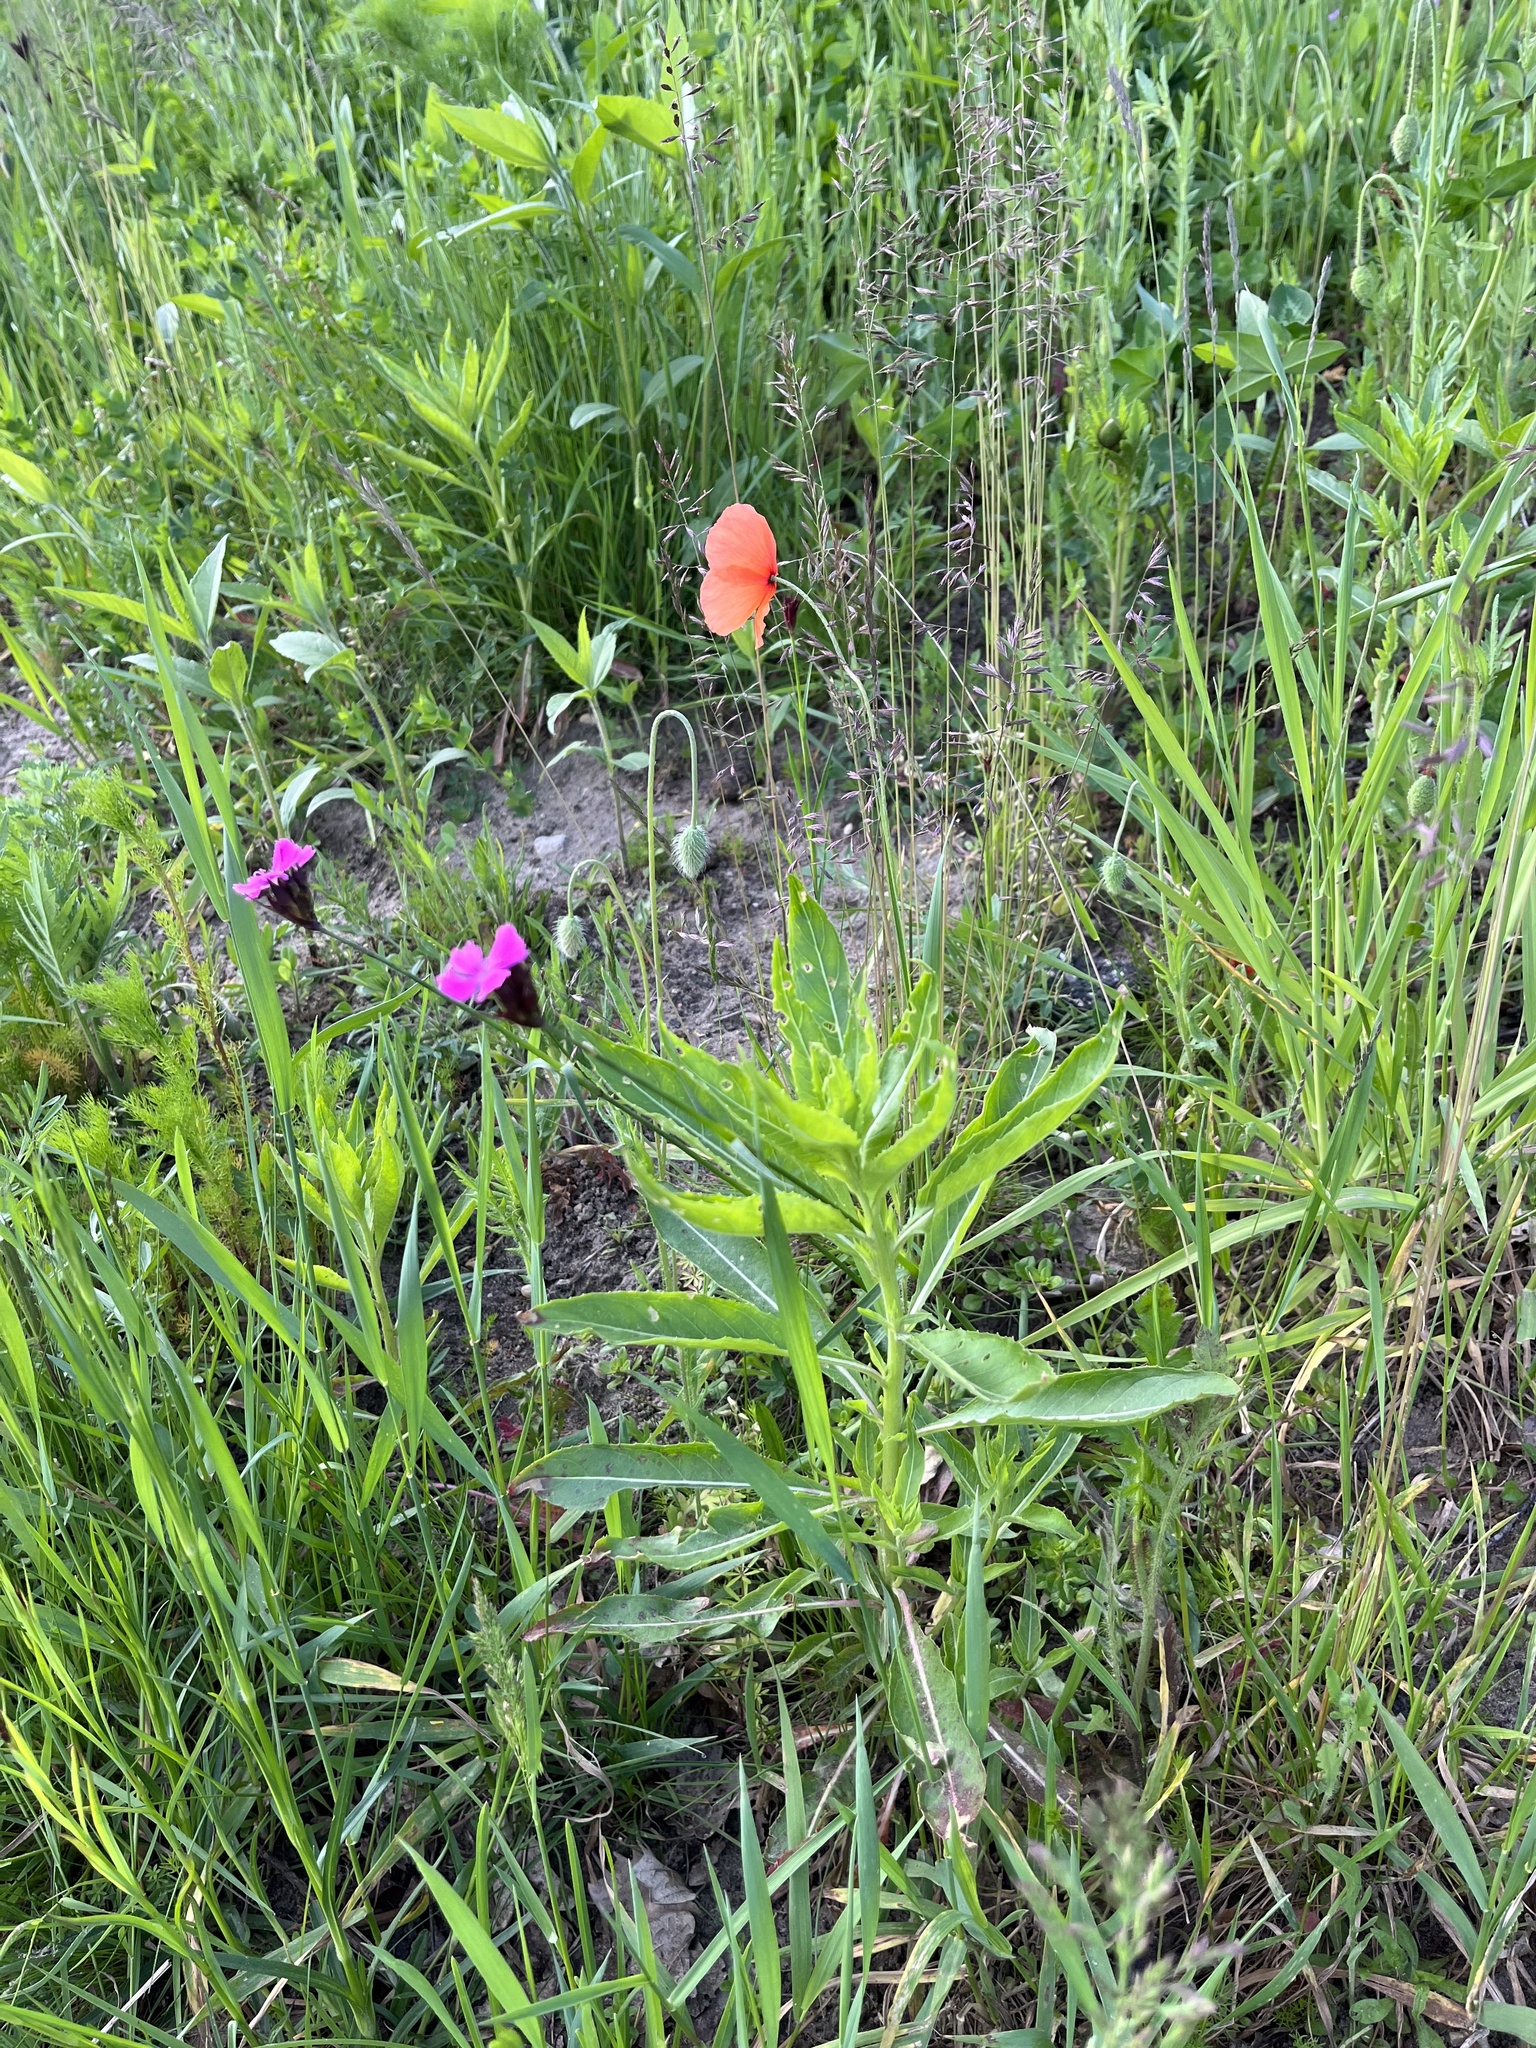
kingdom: Plantae
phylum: Tracheophyta
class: Magnoliopsida
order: Caryophyllales
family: Caryophyllaceae
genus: Silene
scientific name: Silene coronaria
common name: Rose campion
